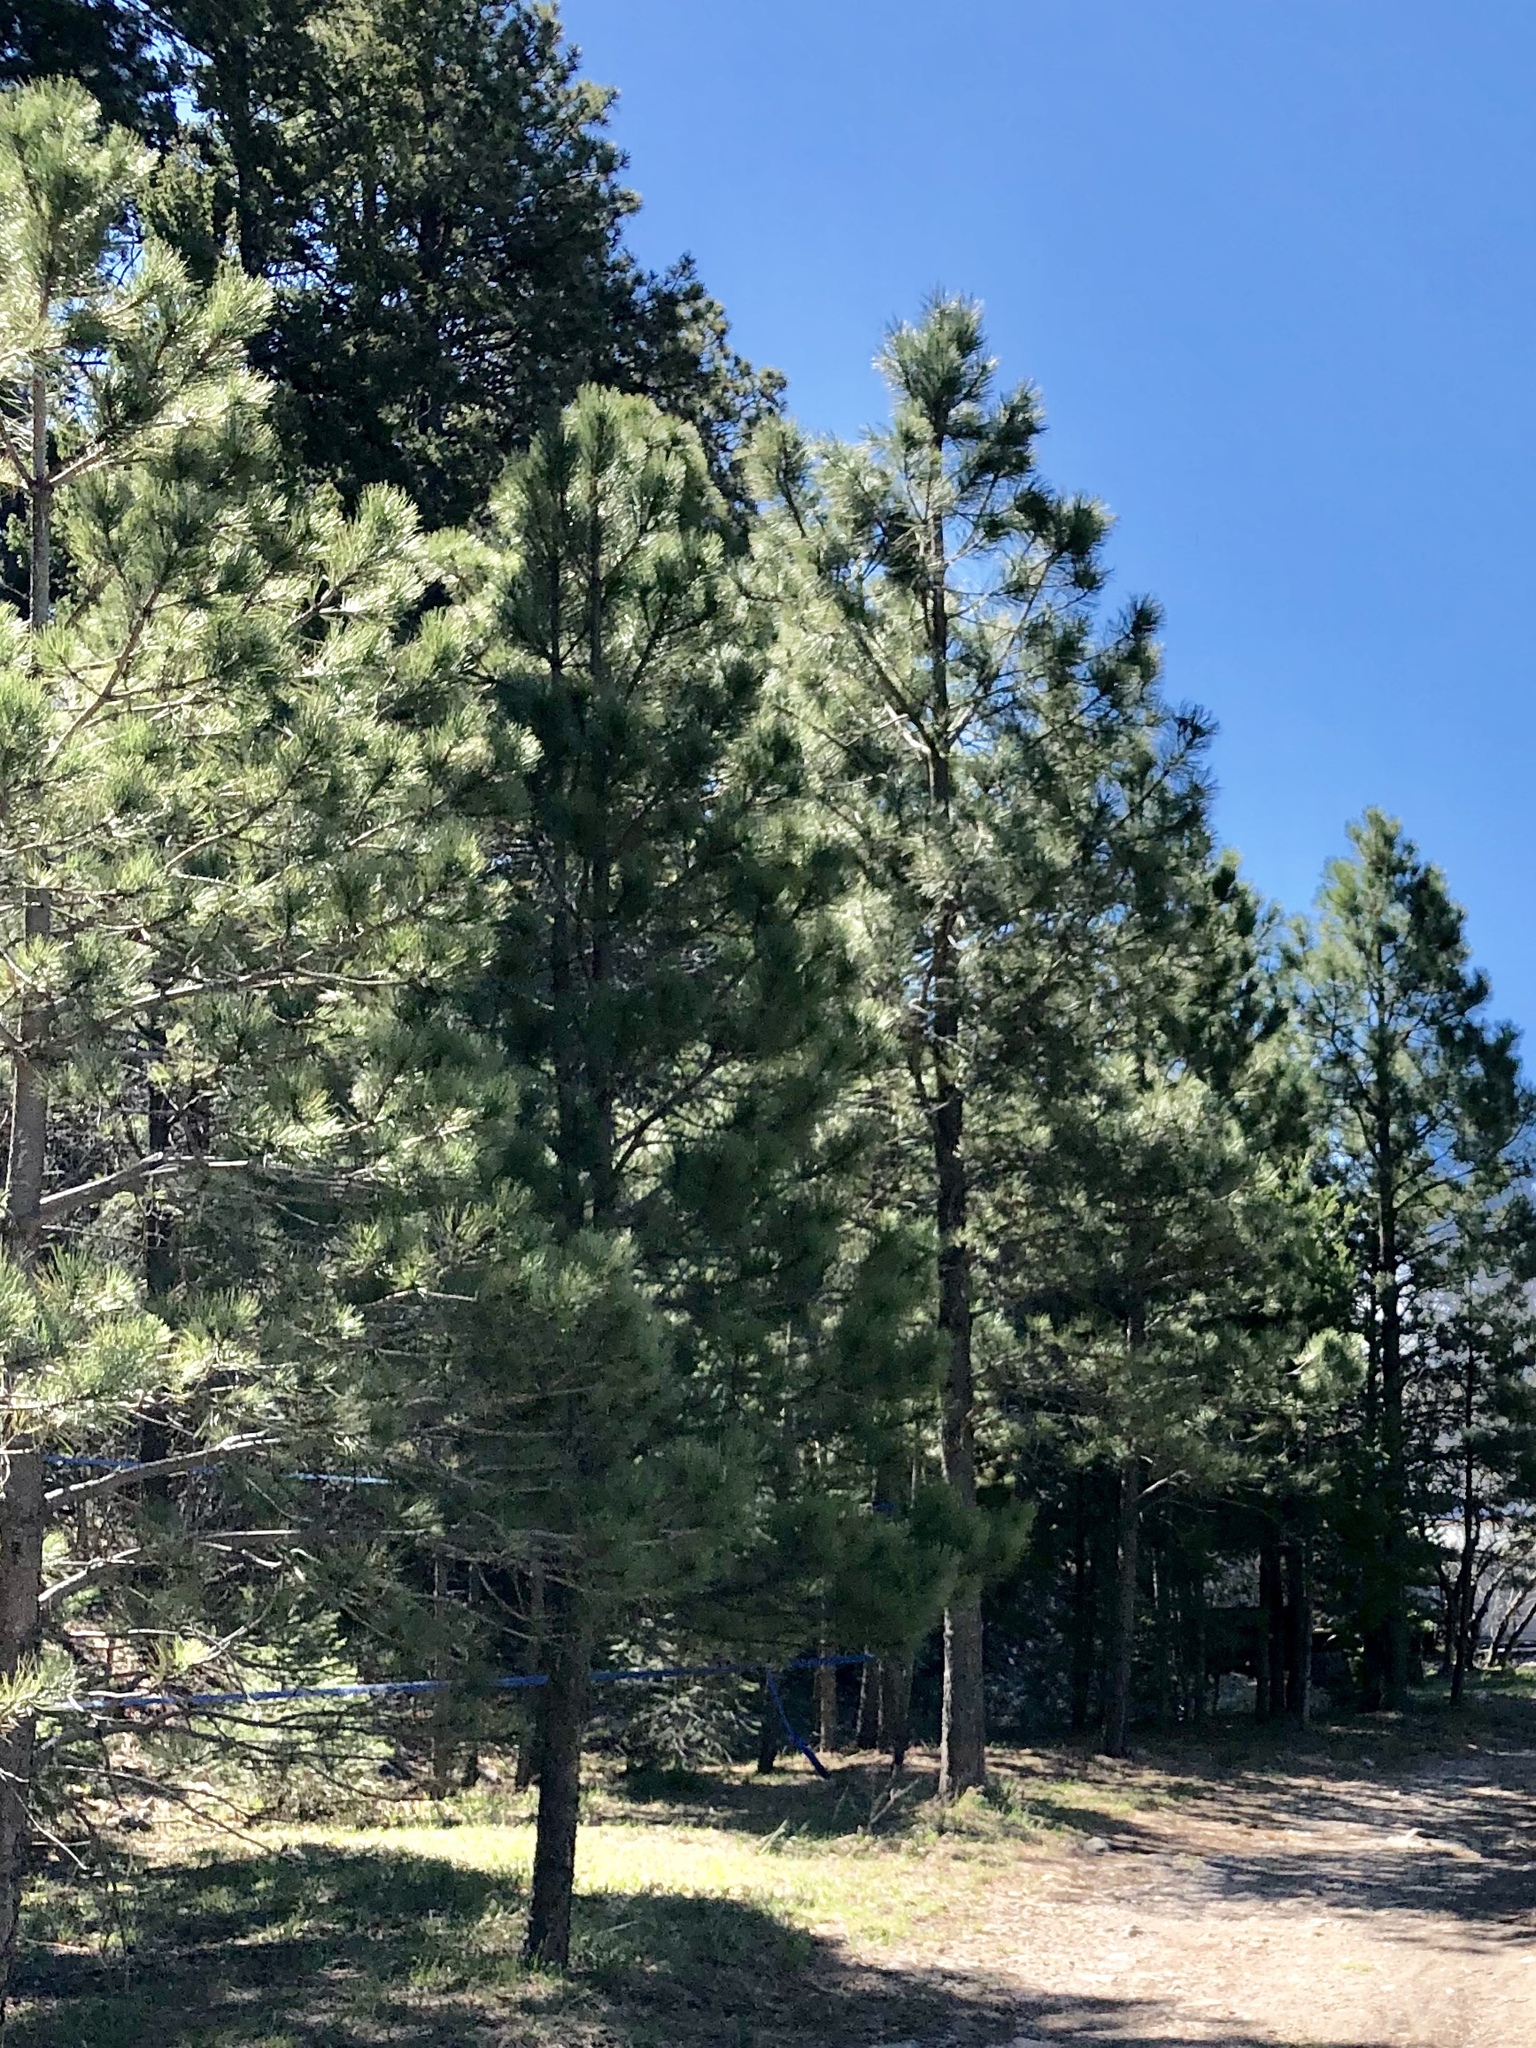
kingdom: Plantae
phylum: Tracheophyta
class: Pinopsida
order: Pinales
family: Pinaceae
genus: Pinus
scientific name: Pinus ponderosa
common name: Western yellow-pine
